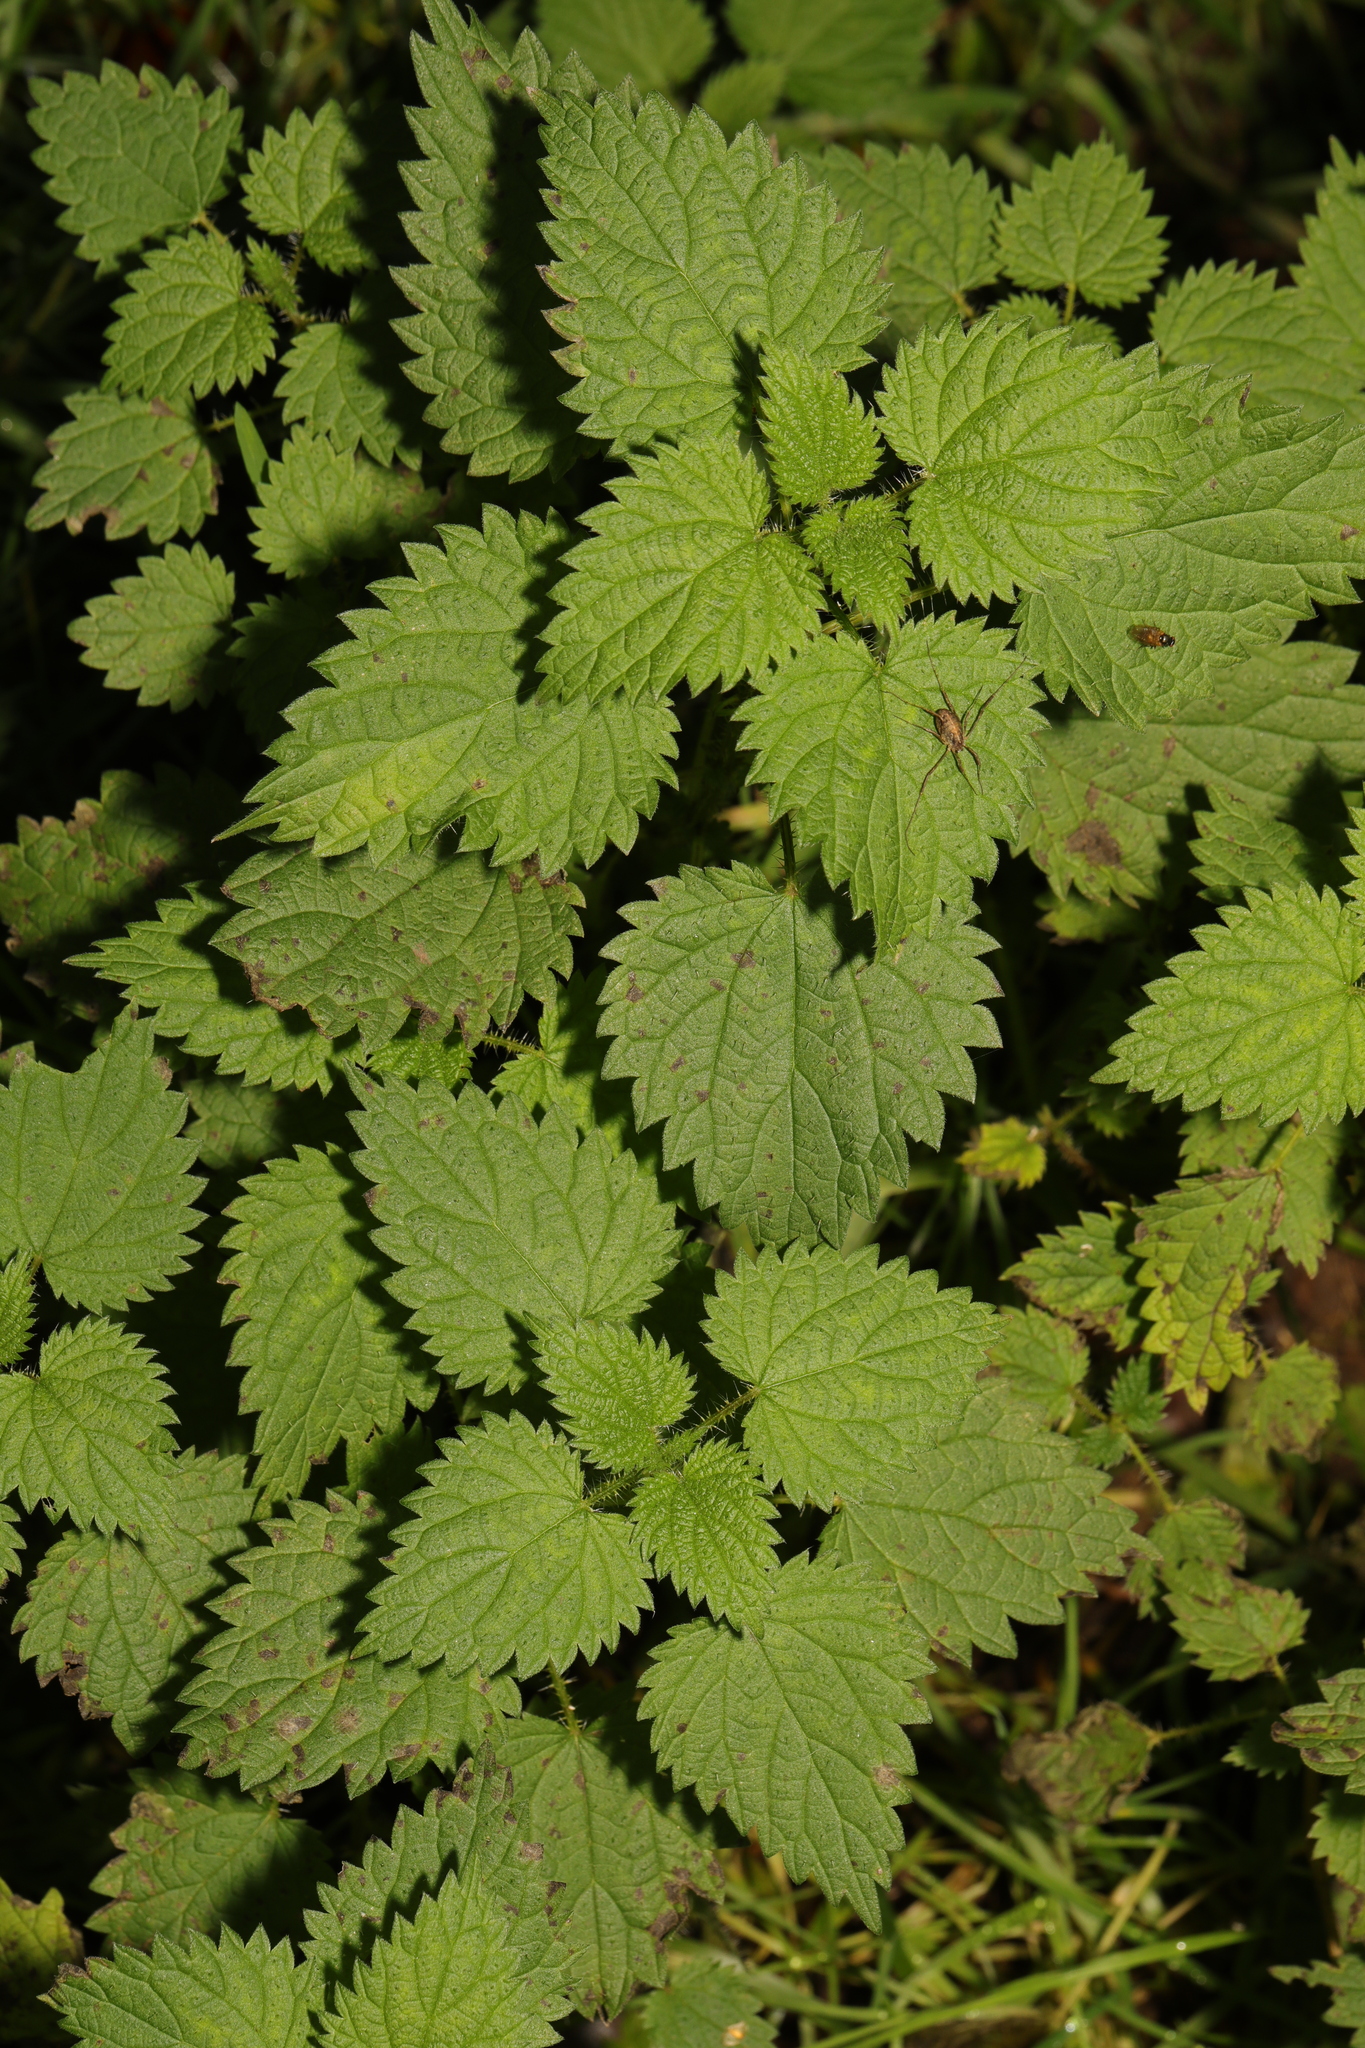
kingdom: Plantae
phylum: Tracheophyta
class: Magnoliopsida
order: Rosales
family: Urticaceae
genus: Urtica
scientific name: Urtica dioica
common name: Common nettle
